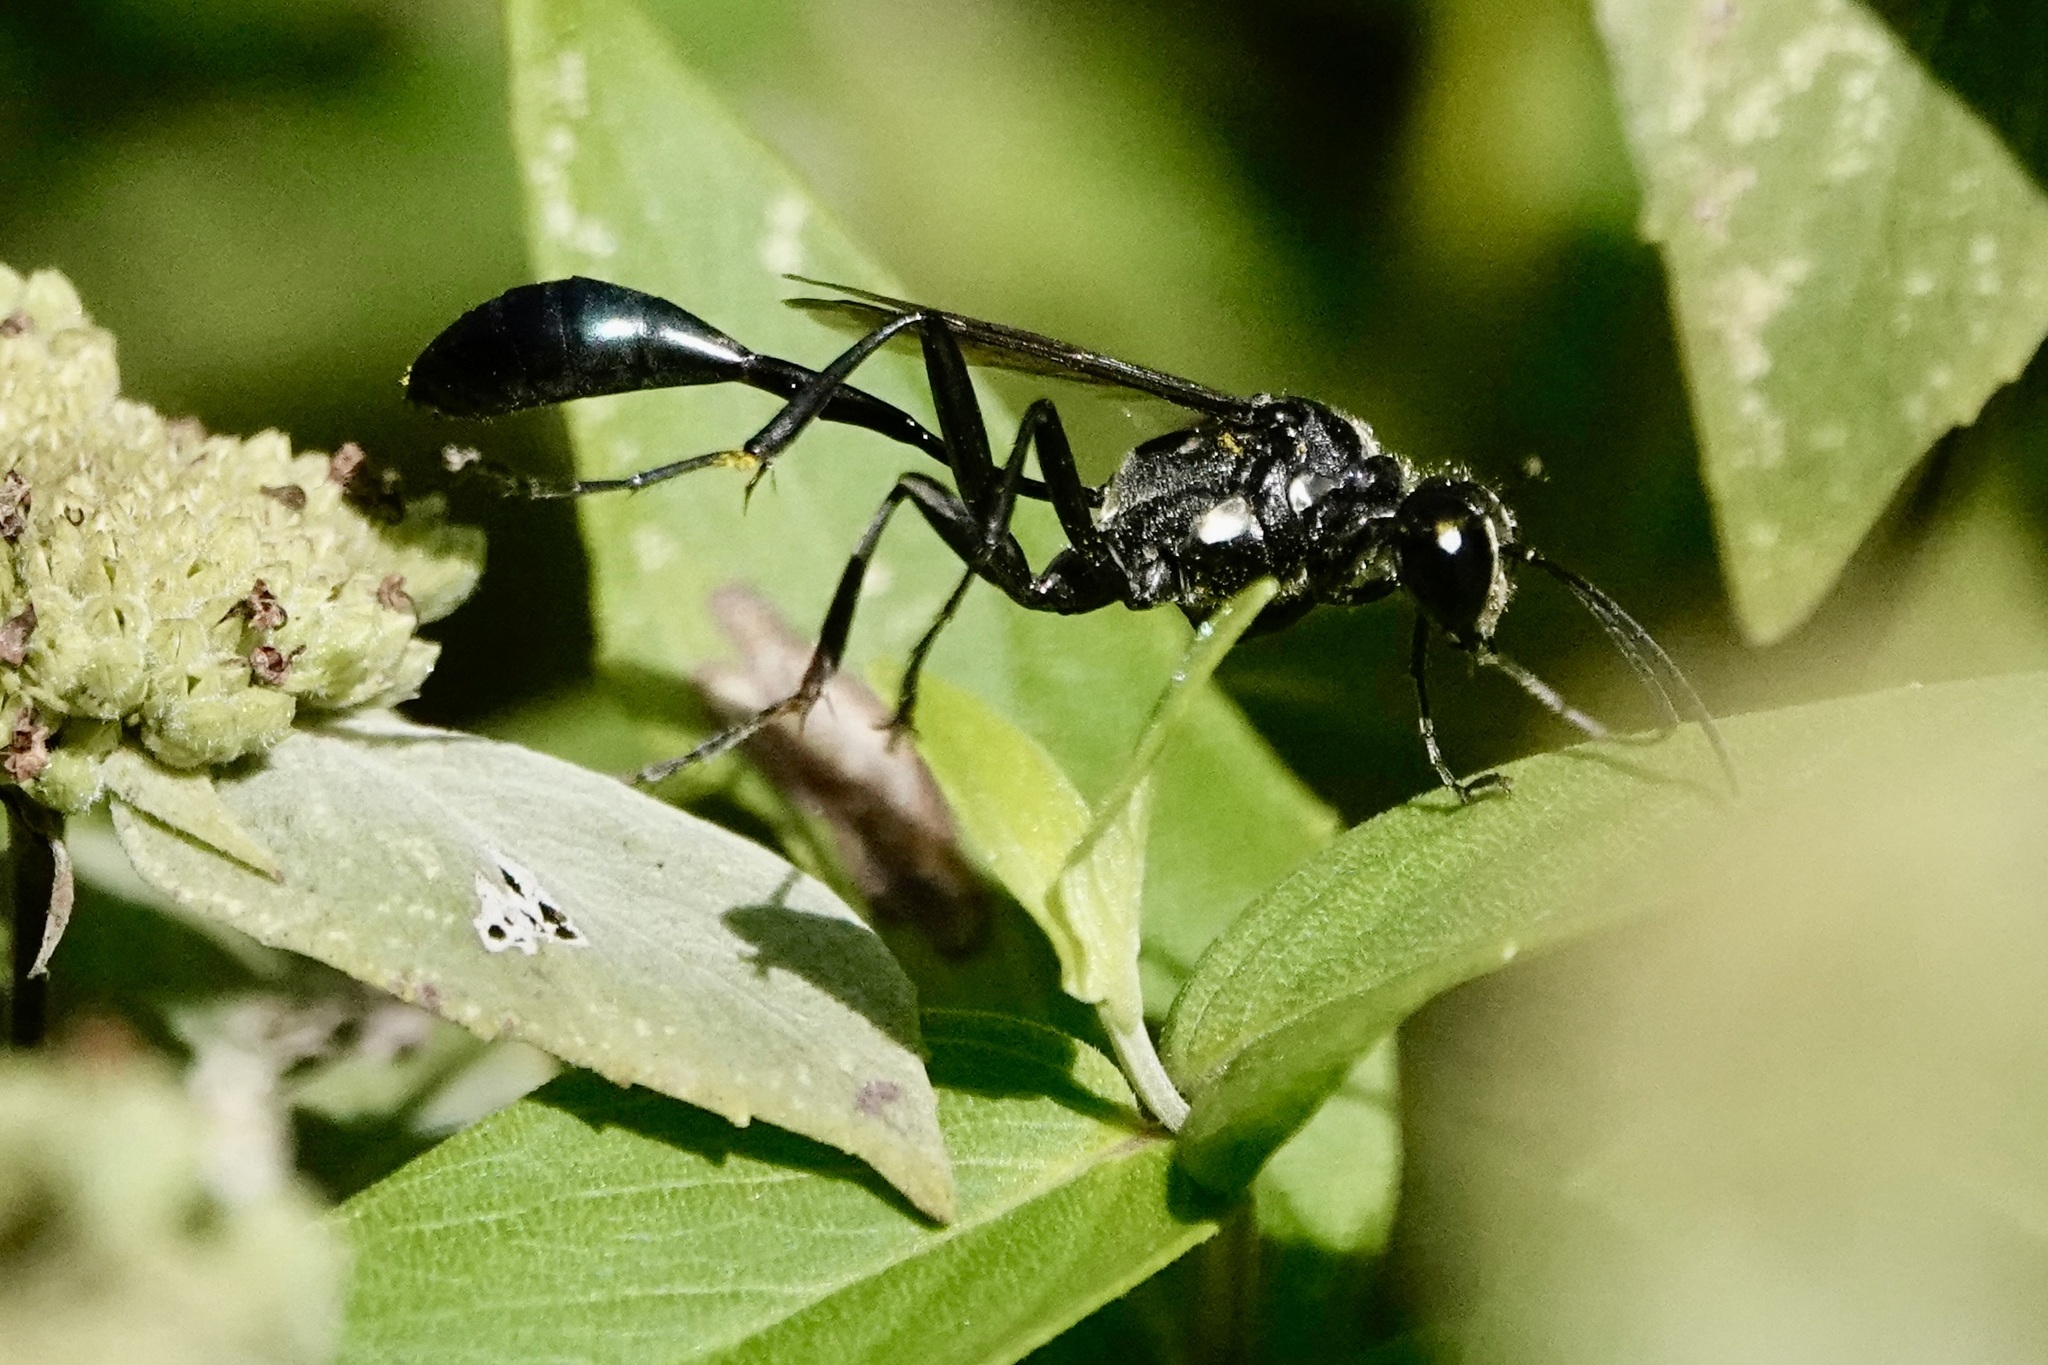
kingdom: Animalia
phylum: Arthropoda
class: Insecta
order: Hymenoptera
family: Sphecidae
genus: Eremnophila
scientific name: Eremnophila aureonotata
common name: Gold-marked thread-waisted wasp
